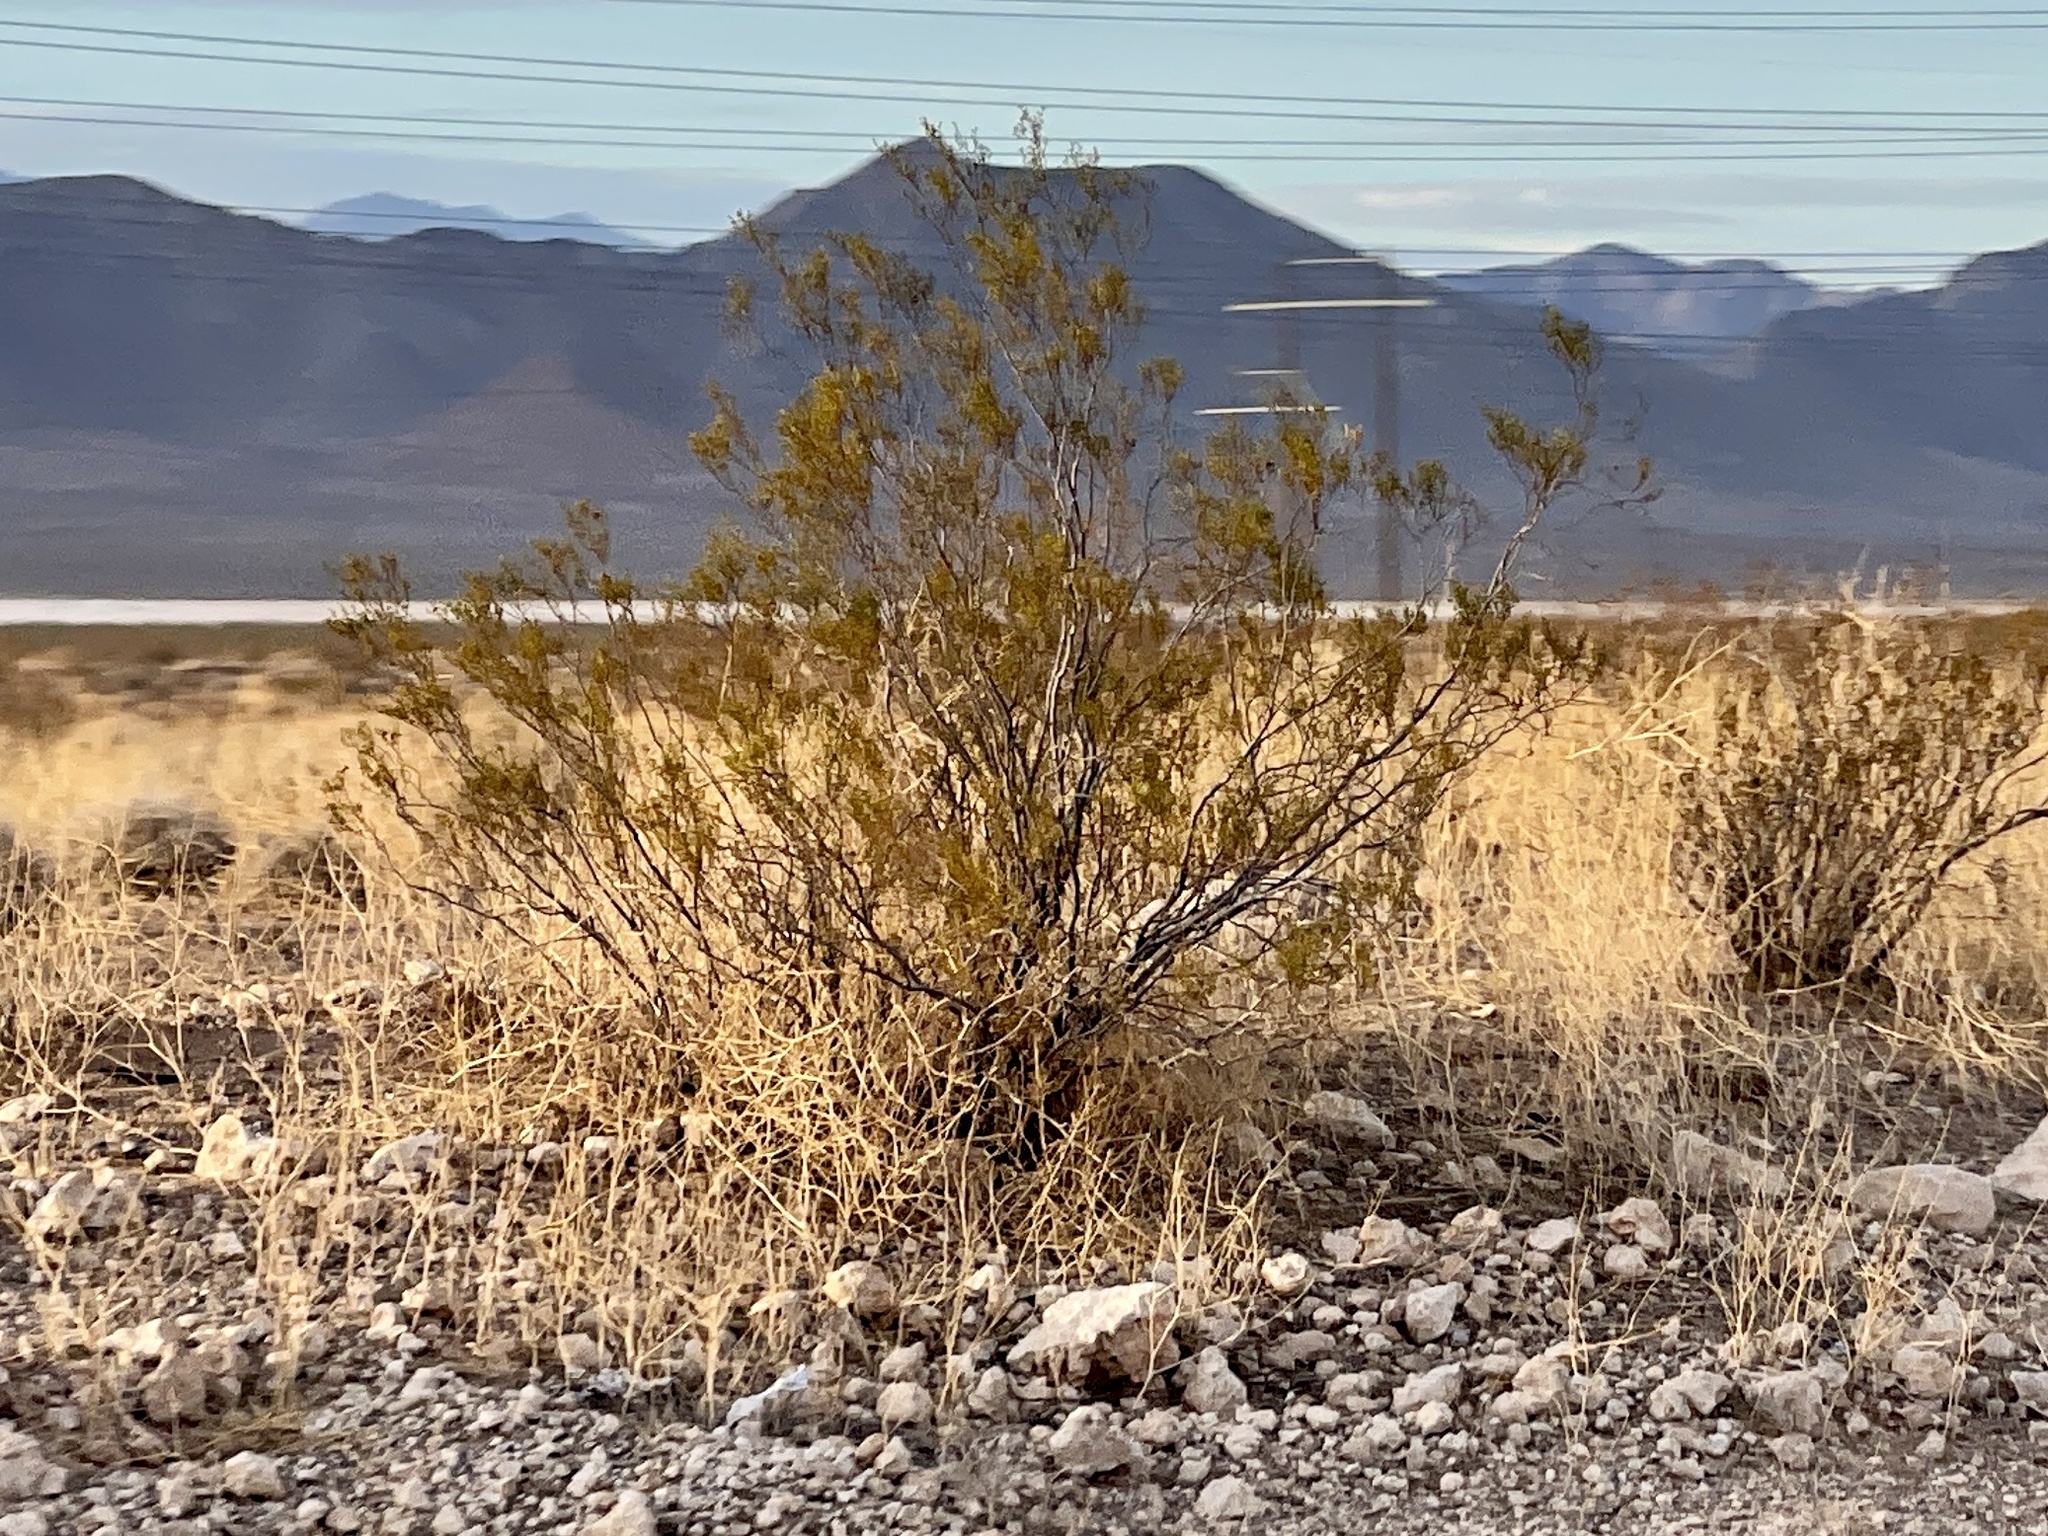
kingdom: Plantae
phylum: Tracheophyta
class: Magnoliopsida
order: Zygophyllales
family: Zygophyllaceae
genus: Larrea
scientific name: Larrea tridentata
